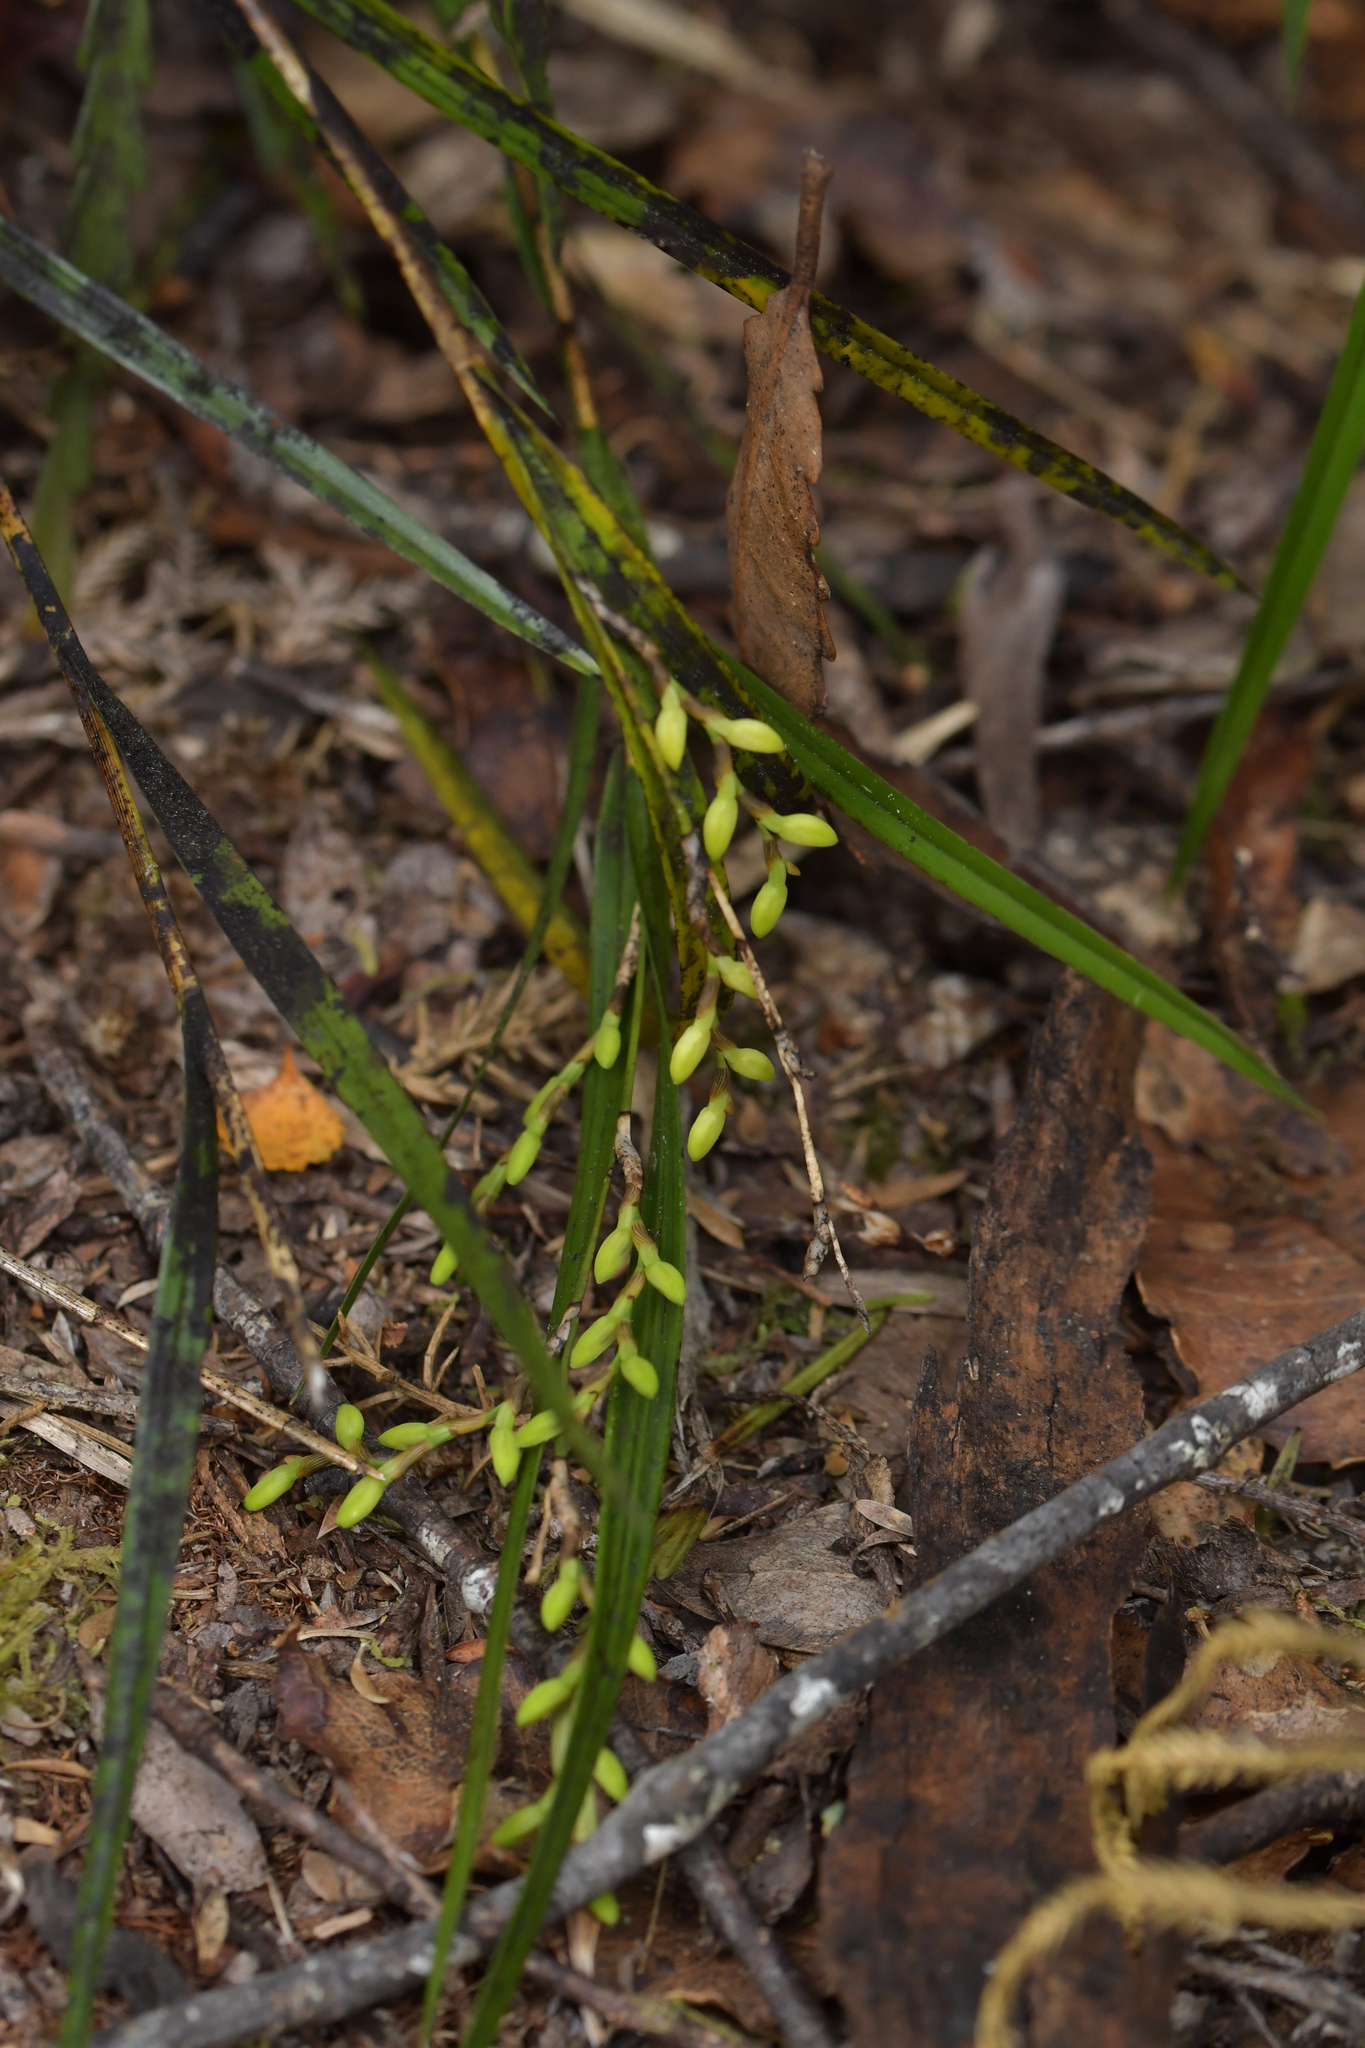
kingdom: Plantae
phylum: Tracheophyta
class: Liliopsida
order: Asparagales
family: Orchidaceae
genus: Earina
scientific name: Earina mucronata
